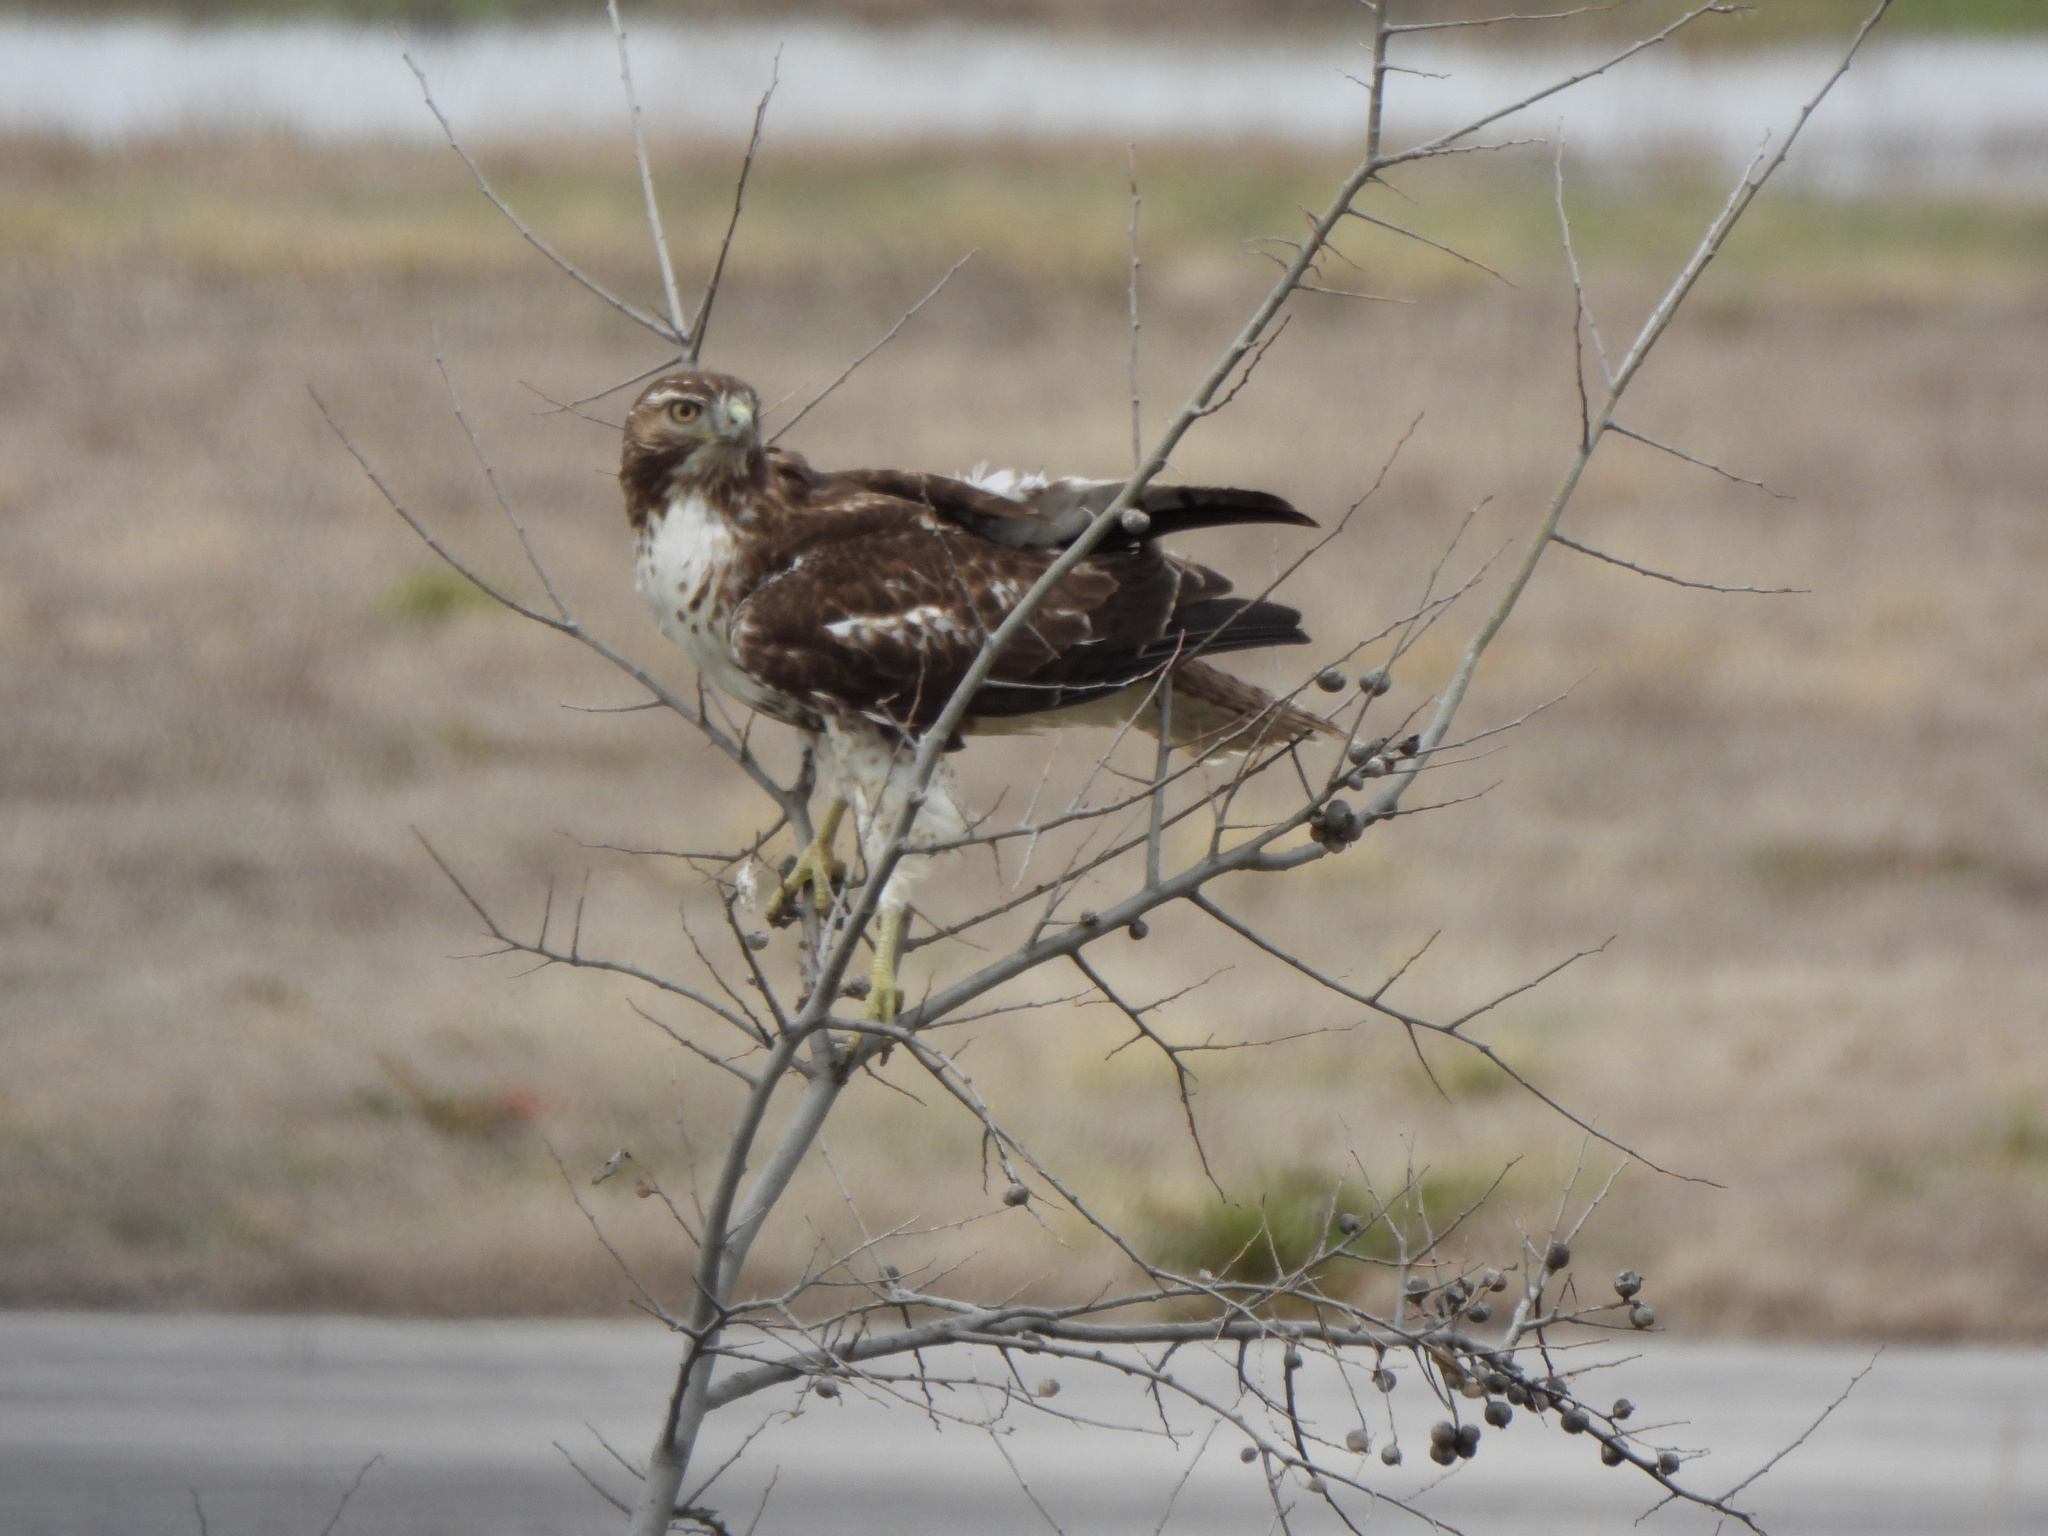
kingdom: Animalia
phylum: Chordata
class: Aves
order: Accipitriformes
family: Accipitridae
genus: Buteo
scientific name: Buteo jamaicensis
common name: Red-tailed hawk
